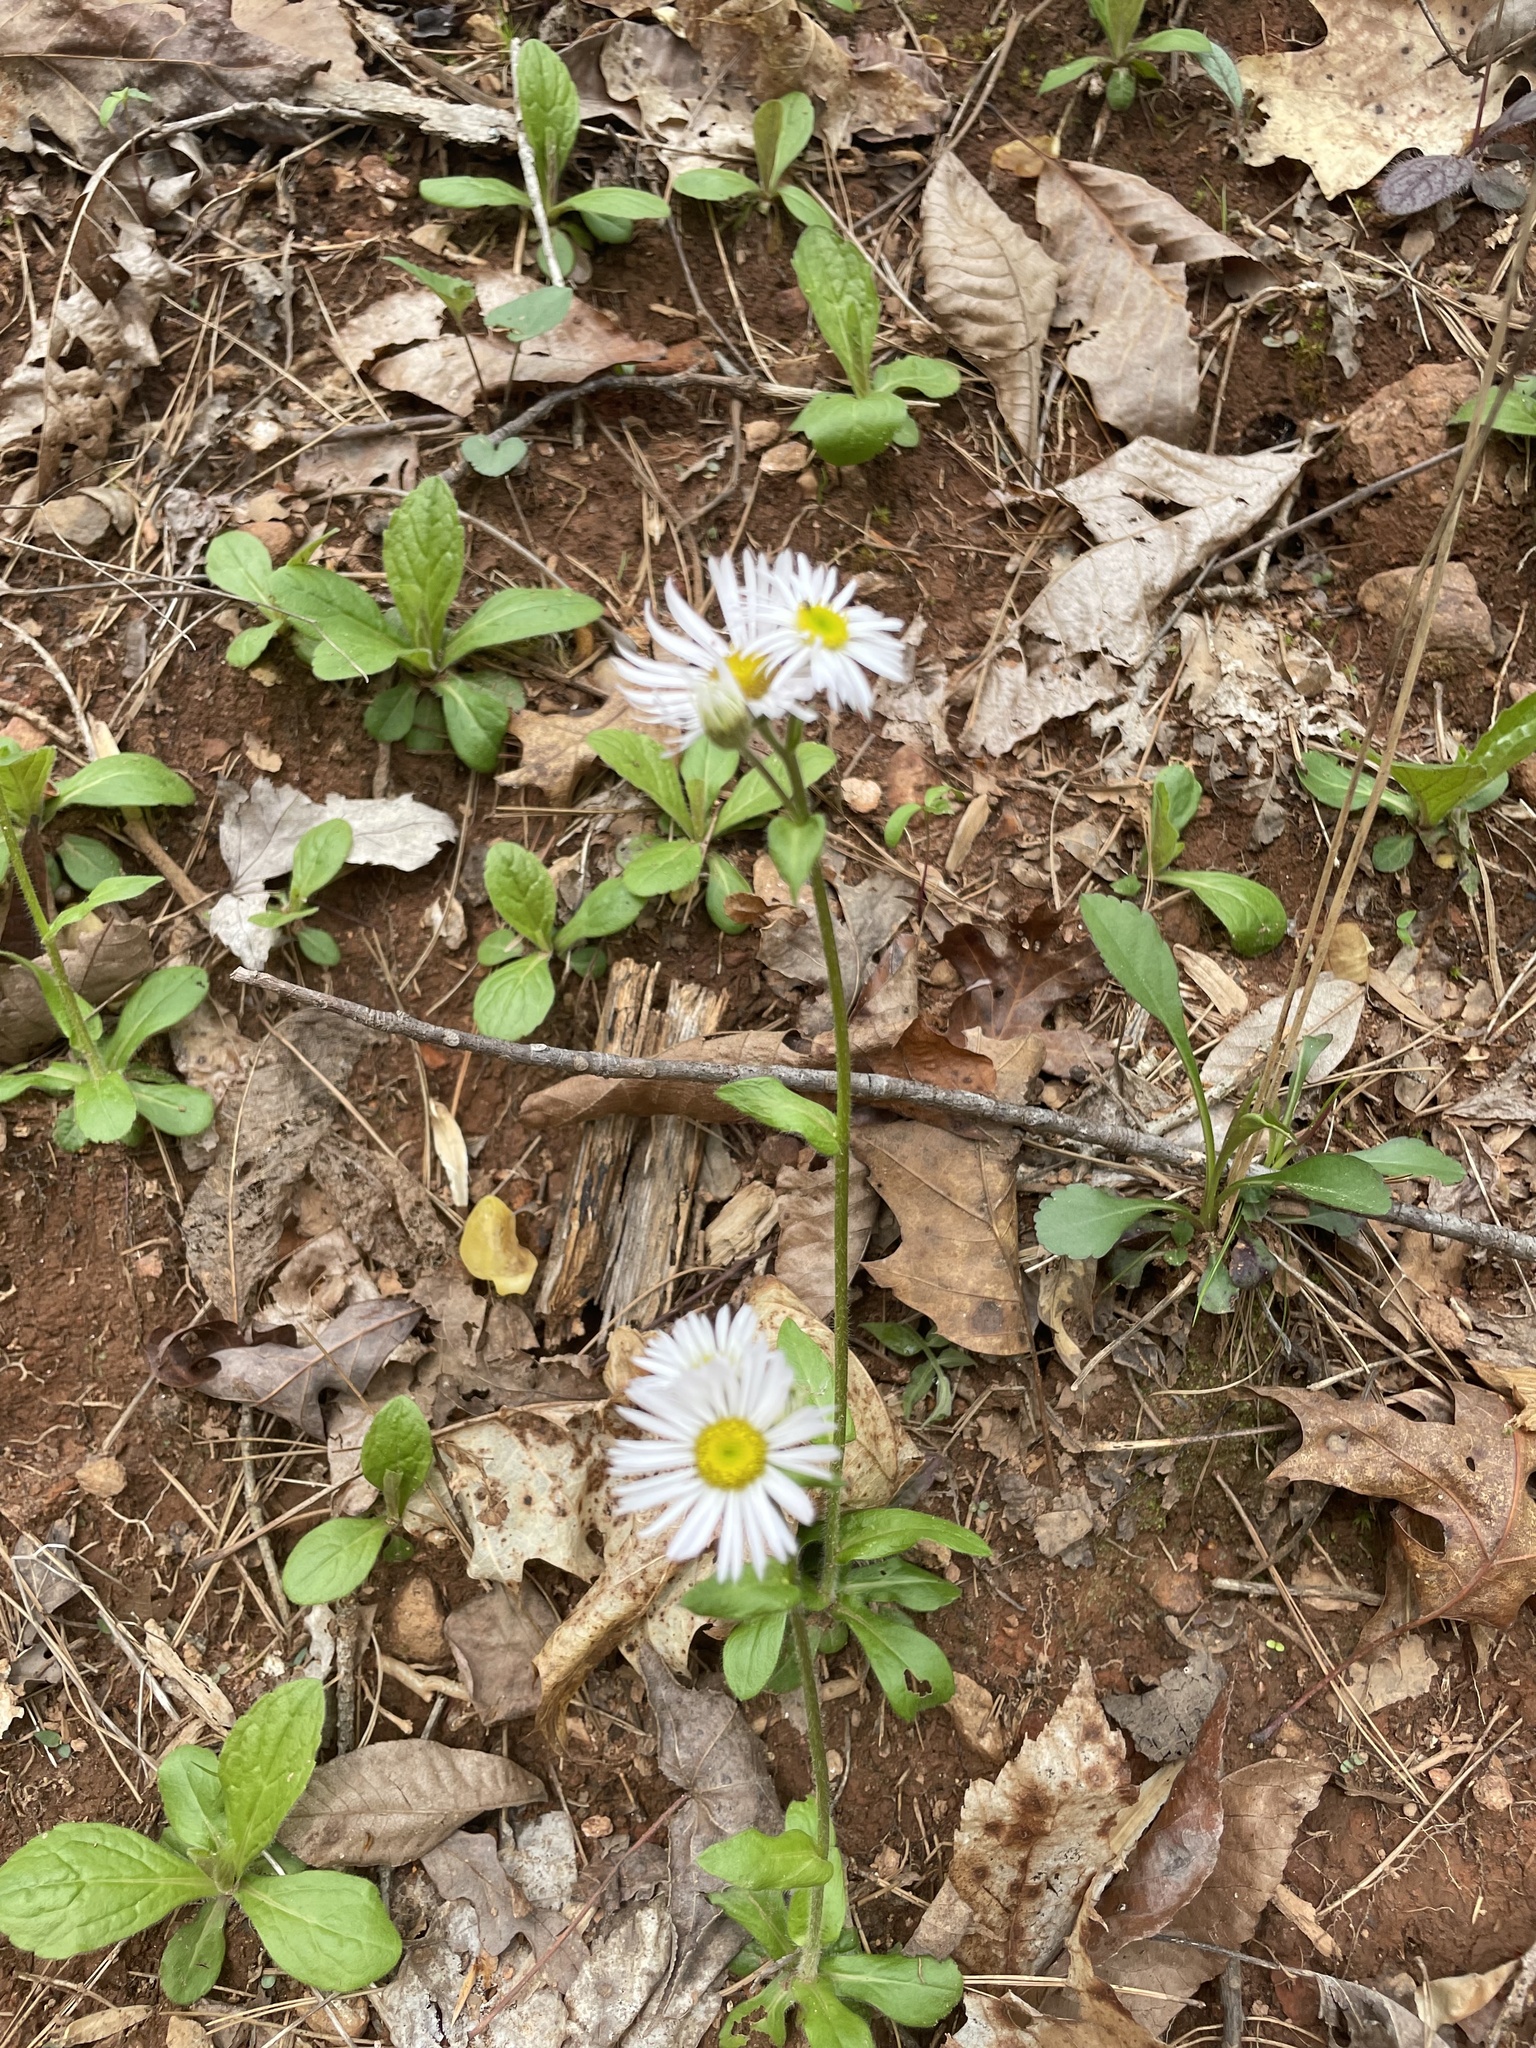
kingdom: Plantae
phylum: Tracheophyta
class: Magnoliopsida
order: Asterales
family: Asteraceae
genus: Erigeron
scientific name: Erigeron pulchellus
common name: Hairy fleabane
